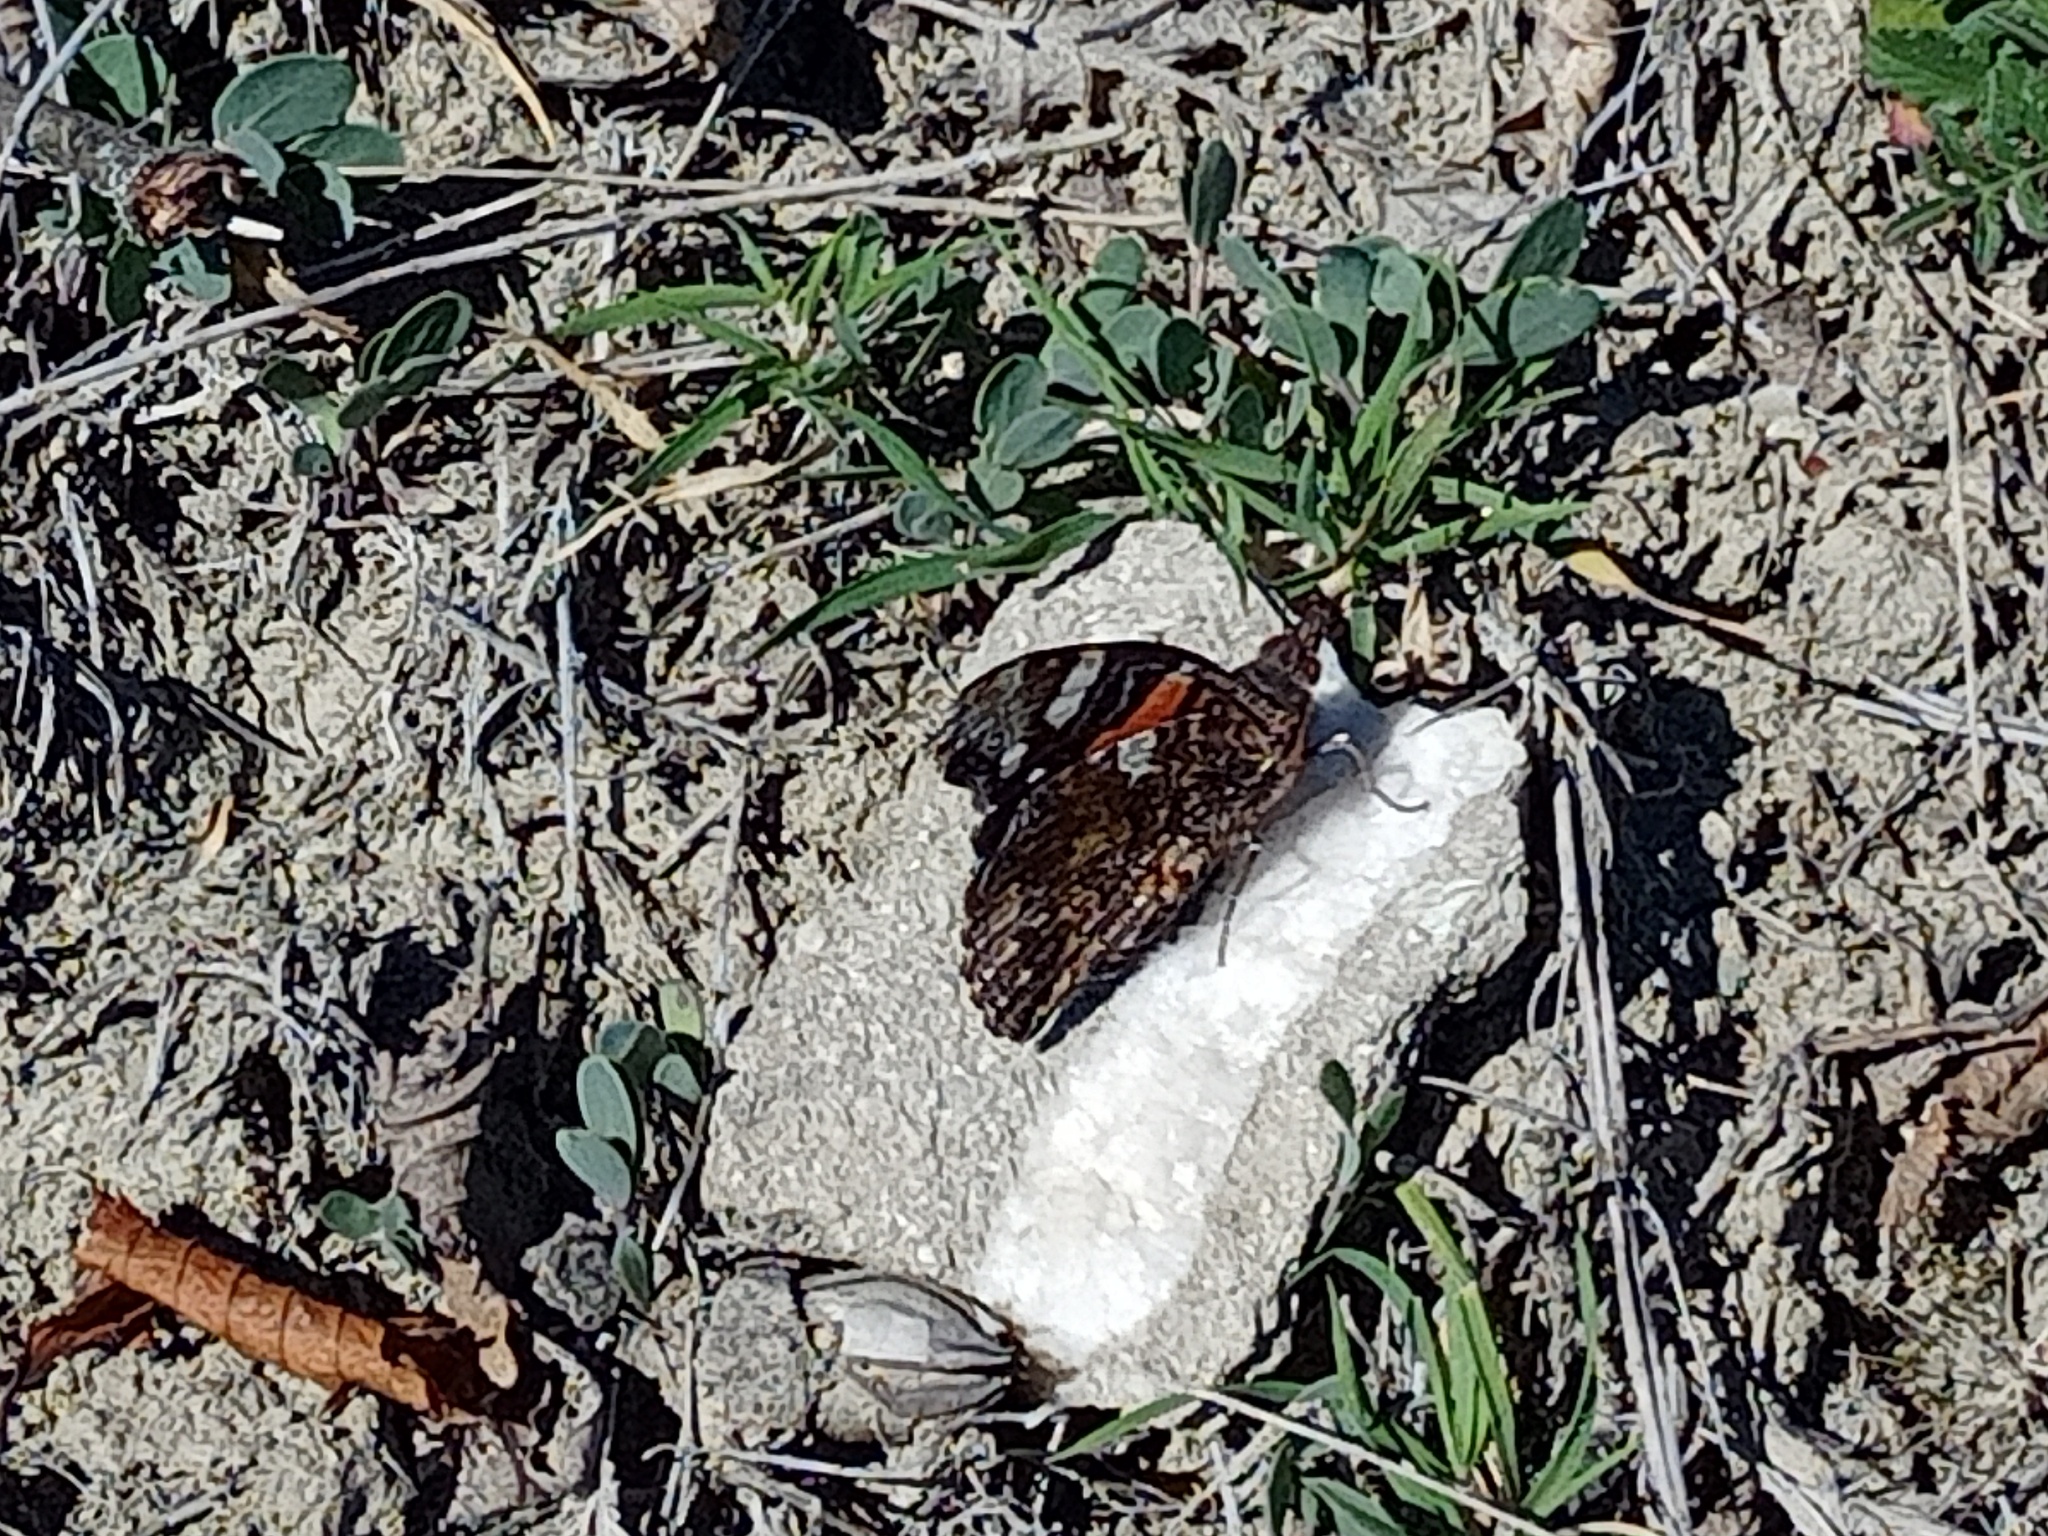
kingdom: Animalia
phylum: Arthropoda
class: Insecta
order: Lepidoptera
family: Nymphalidae
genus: Vanessa
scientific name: Vanessa atalanta
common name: Red admiral
